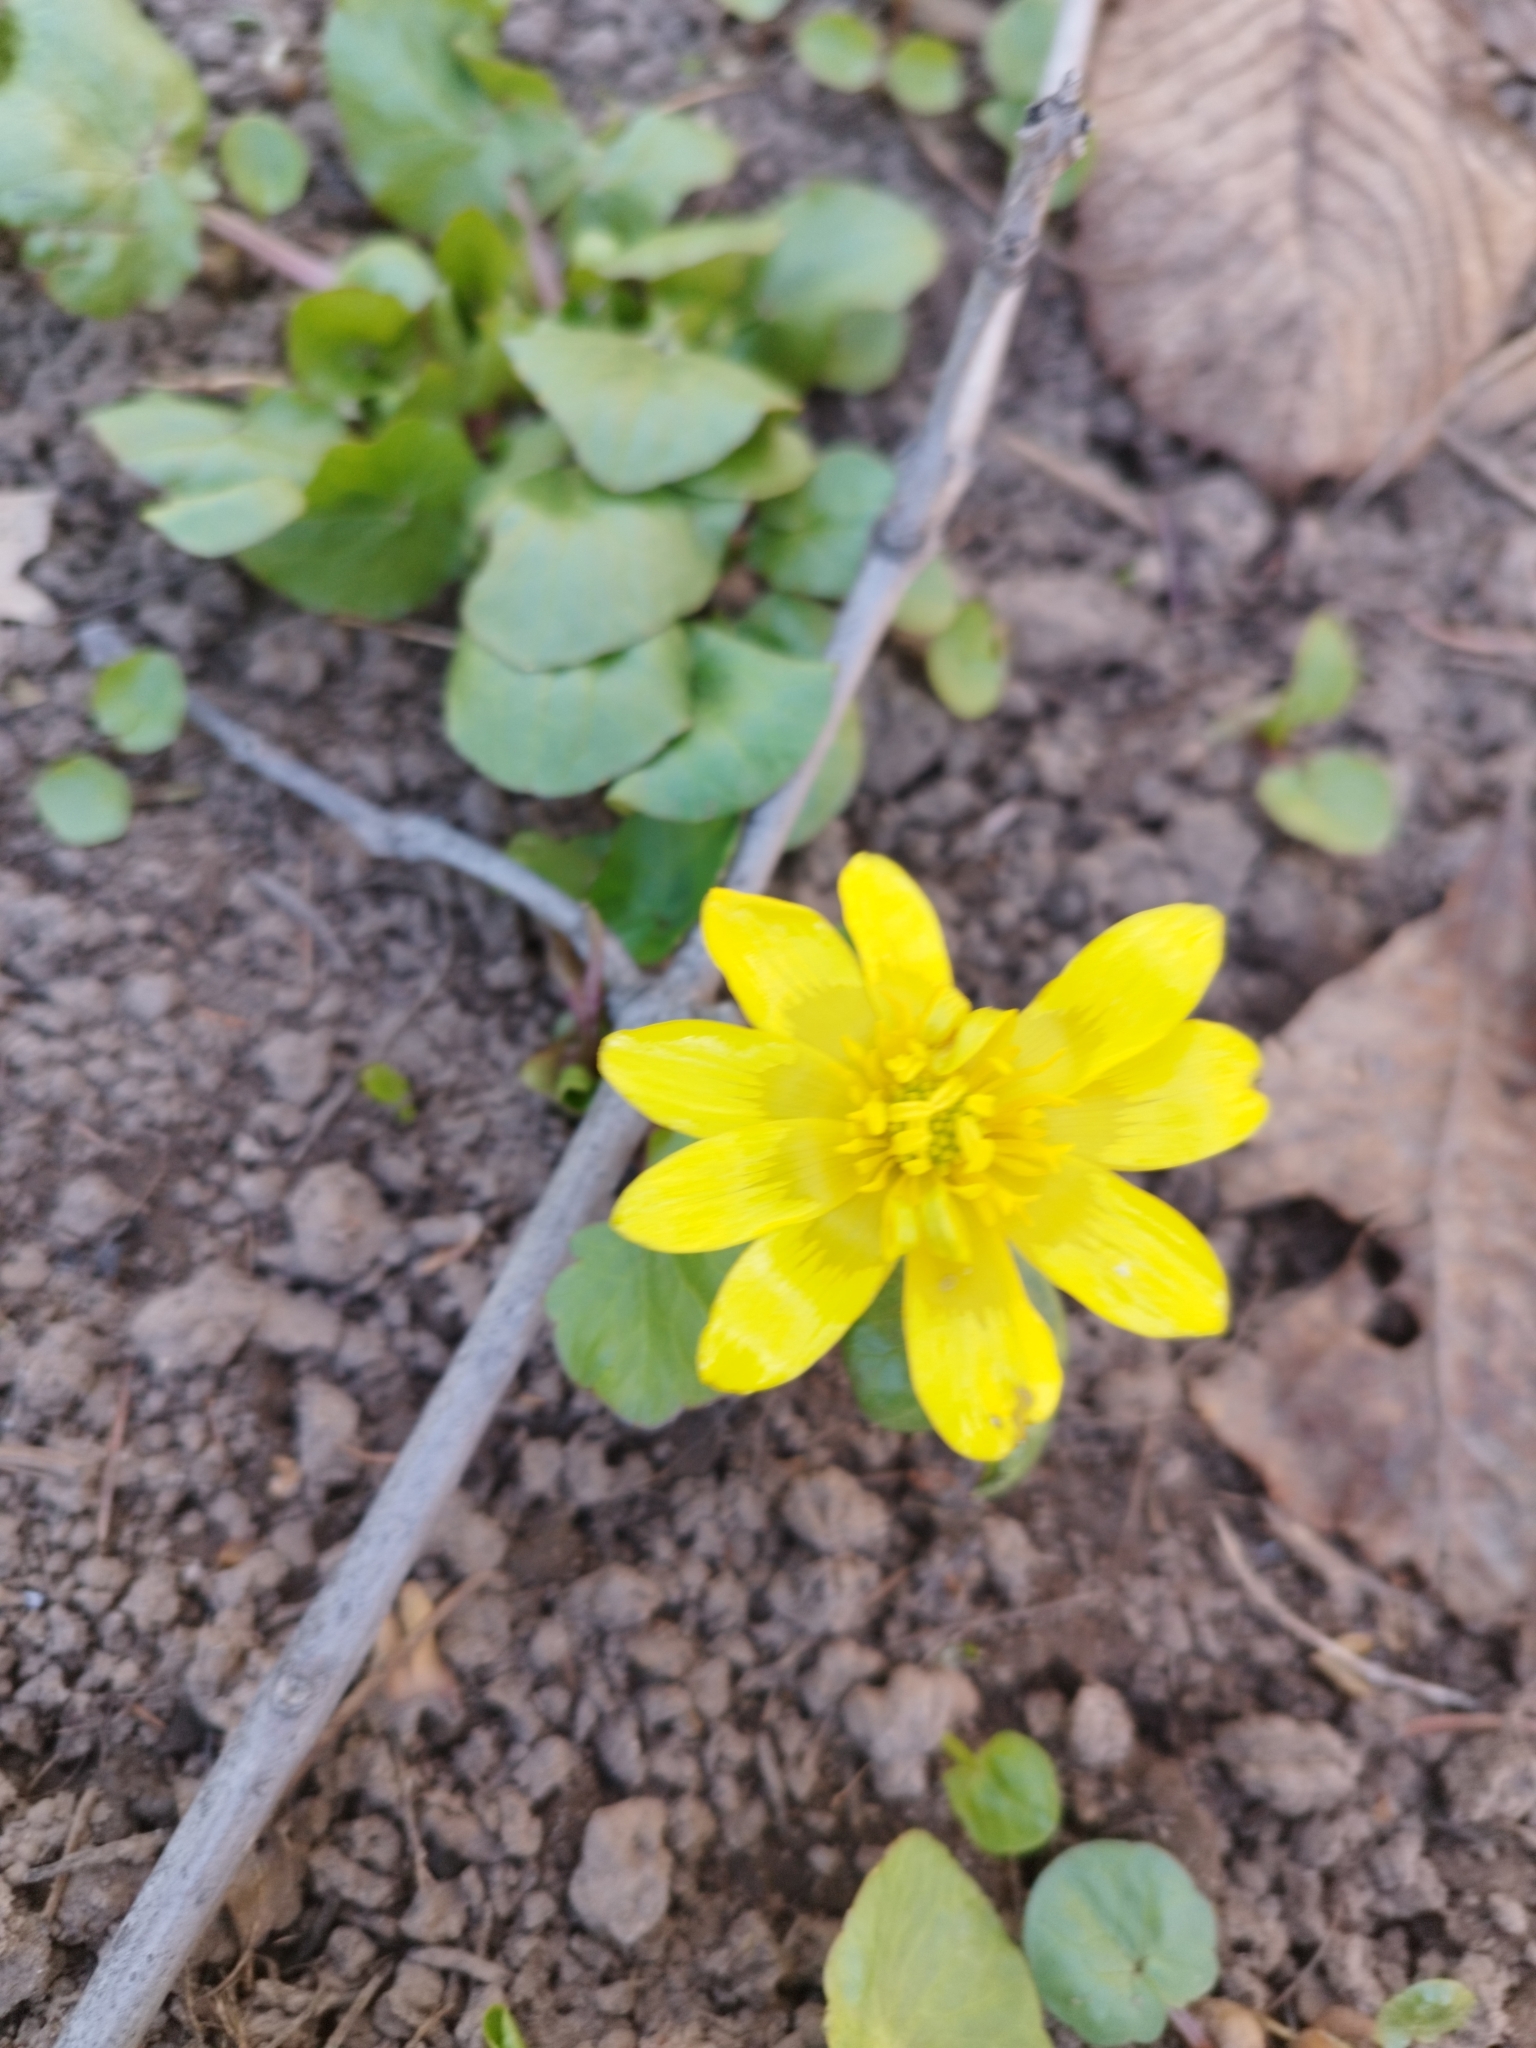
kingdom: Plantae
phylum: Tracheophyta
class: Magnoliopsida
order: Ranunculales
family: Ranunculaceae
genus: Ficaria
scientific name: Ficaria verna
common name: Lesser celandine
